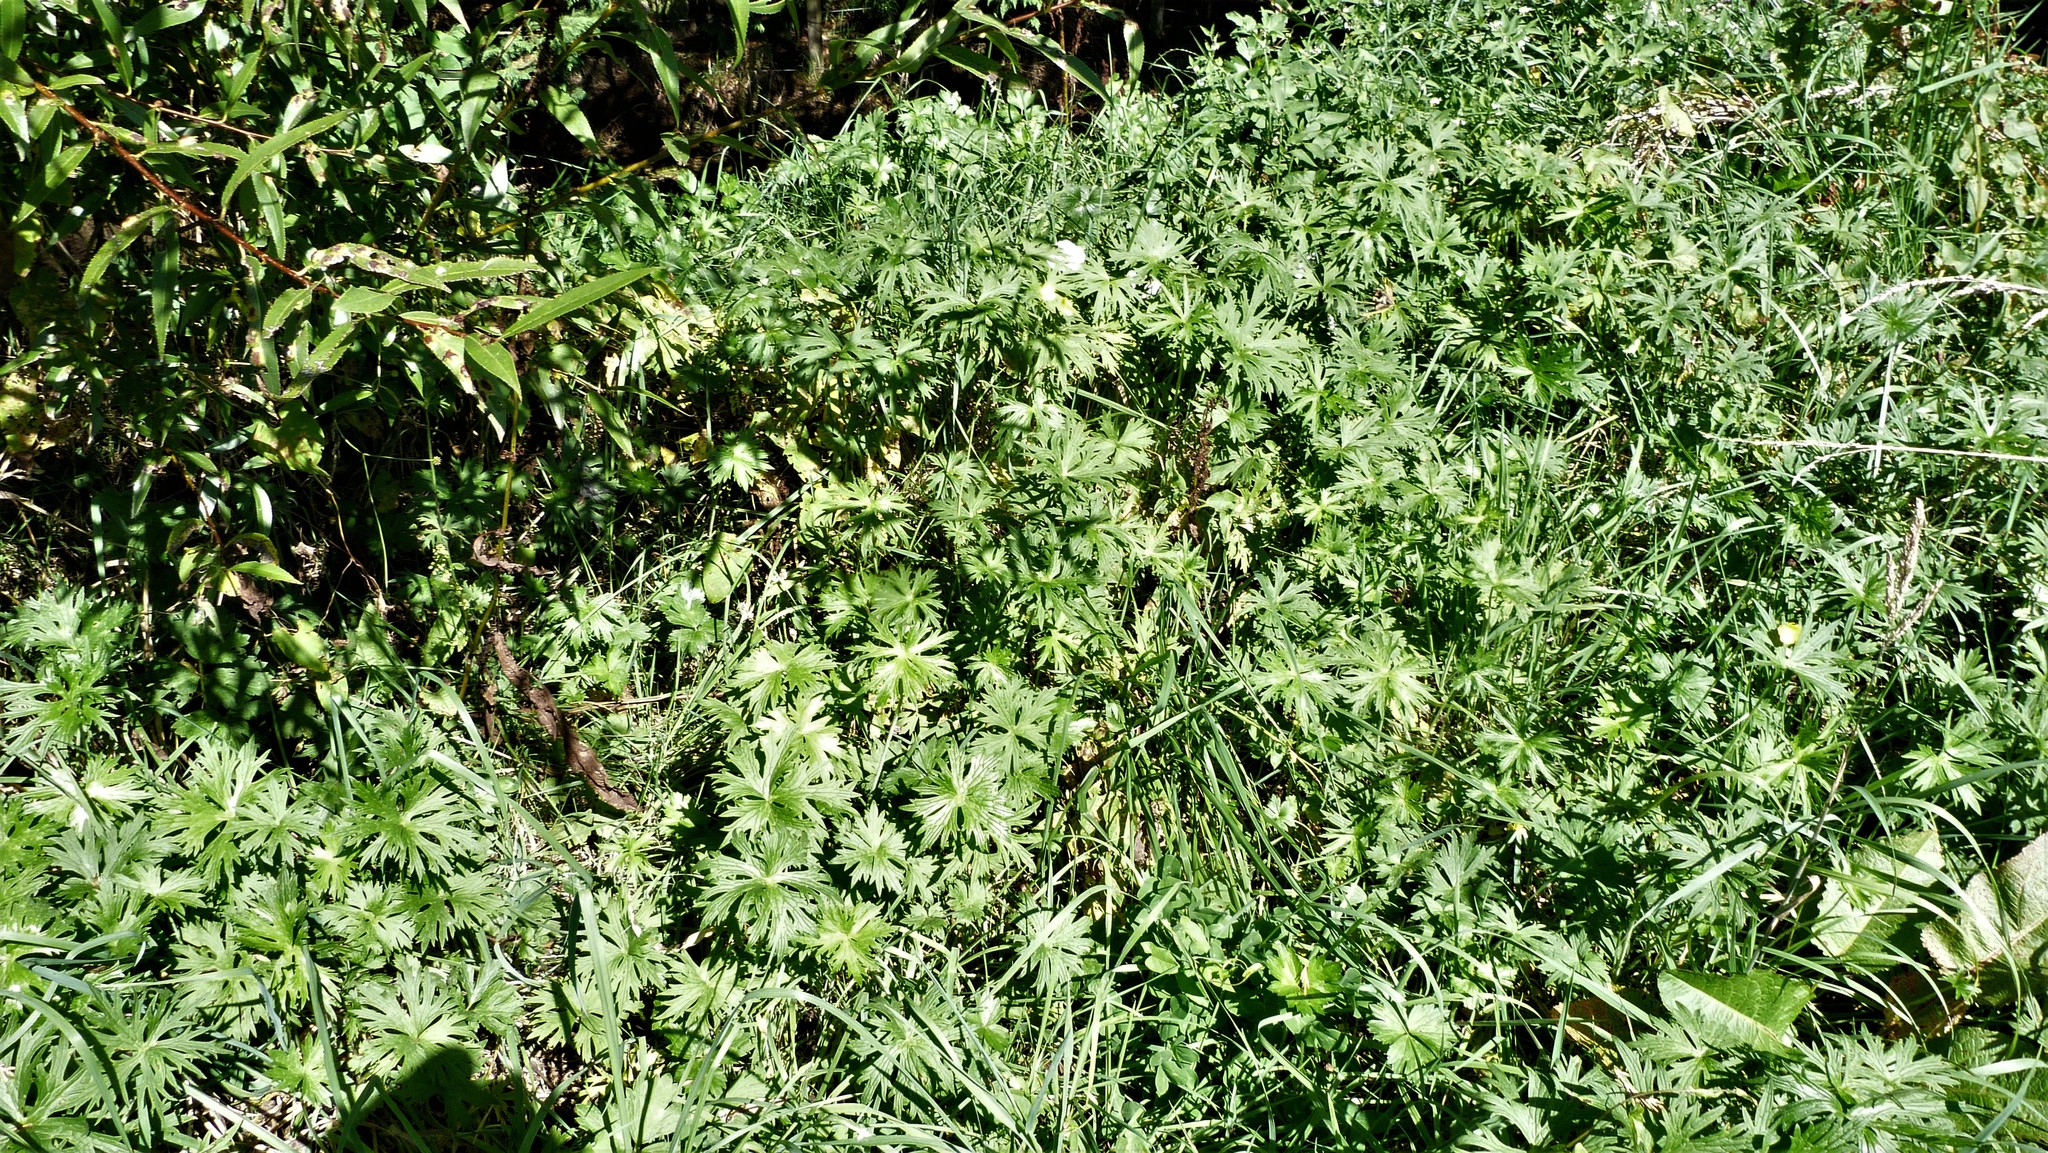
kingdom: Plantae
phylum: Tracheophyta
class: Magnoliopsida
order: Ranunculales
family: Ranunculaceae
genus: Ranunculus
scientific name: Ranunculus acris
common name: Meadow buttercup
